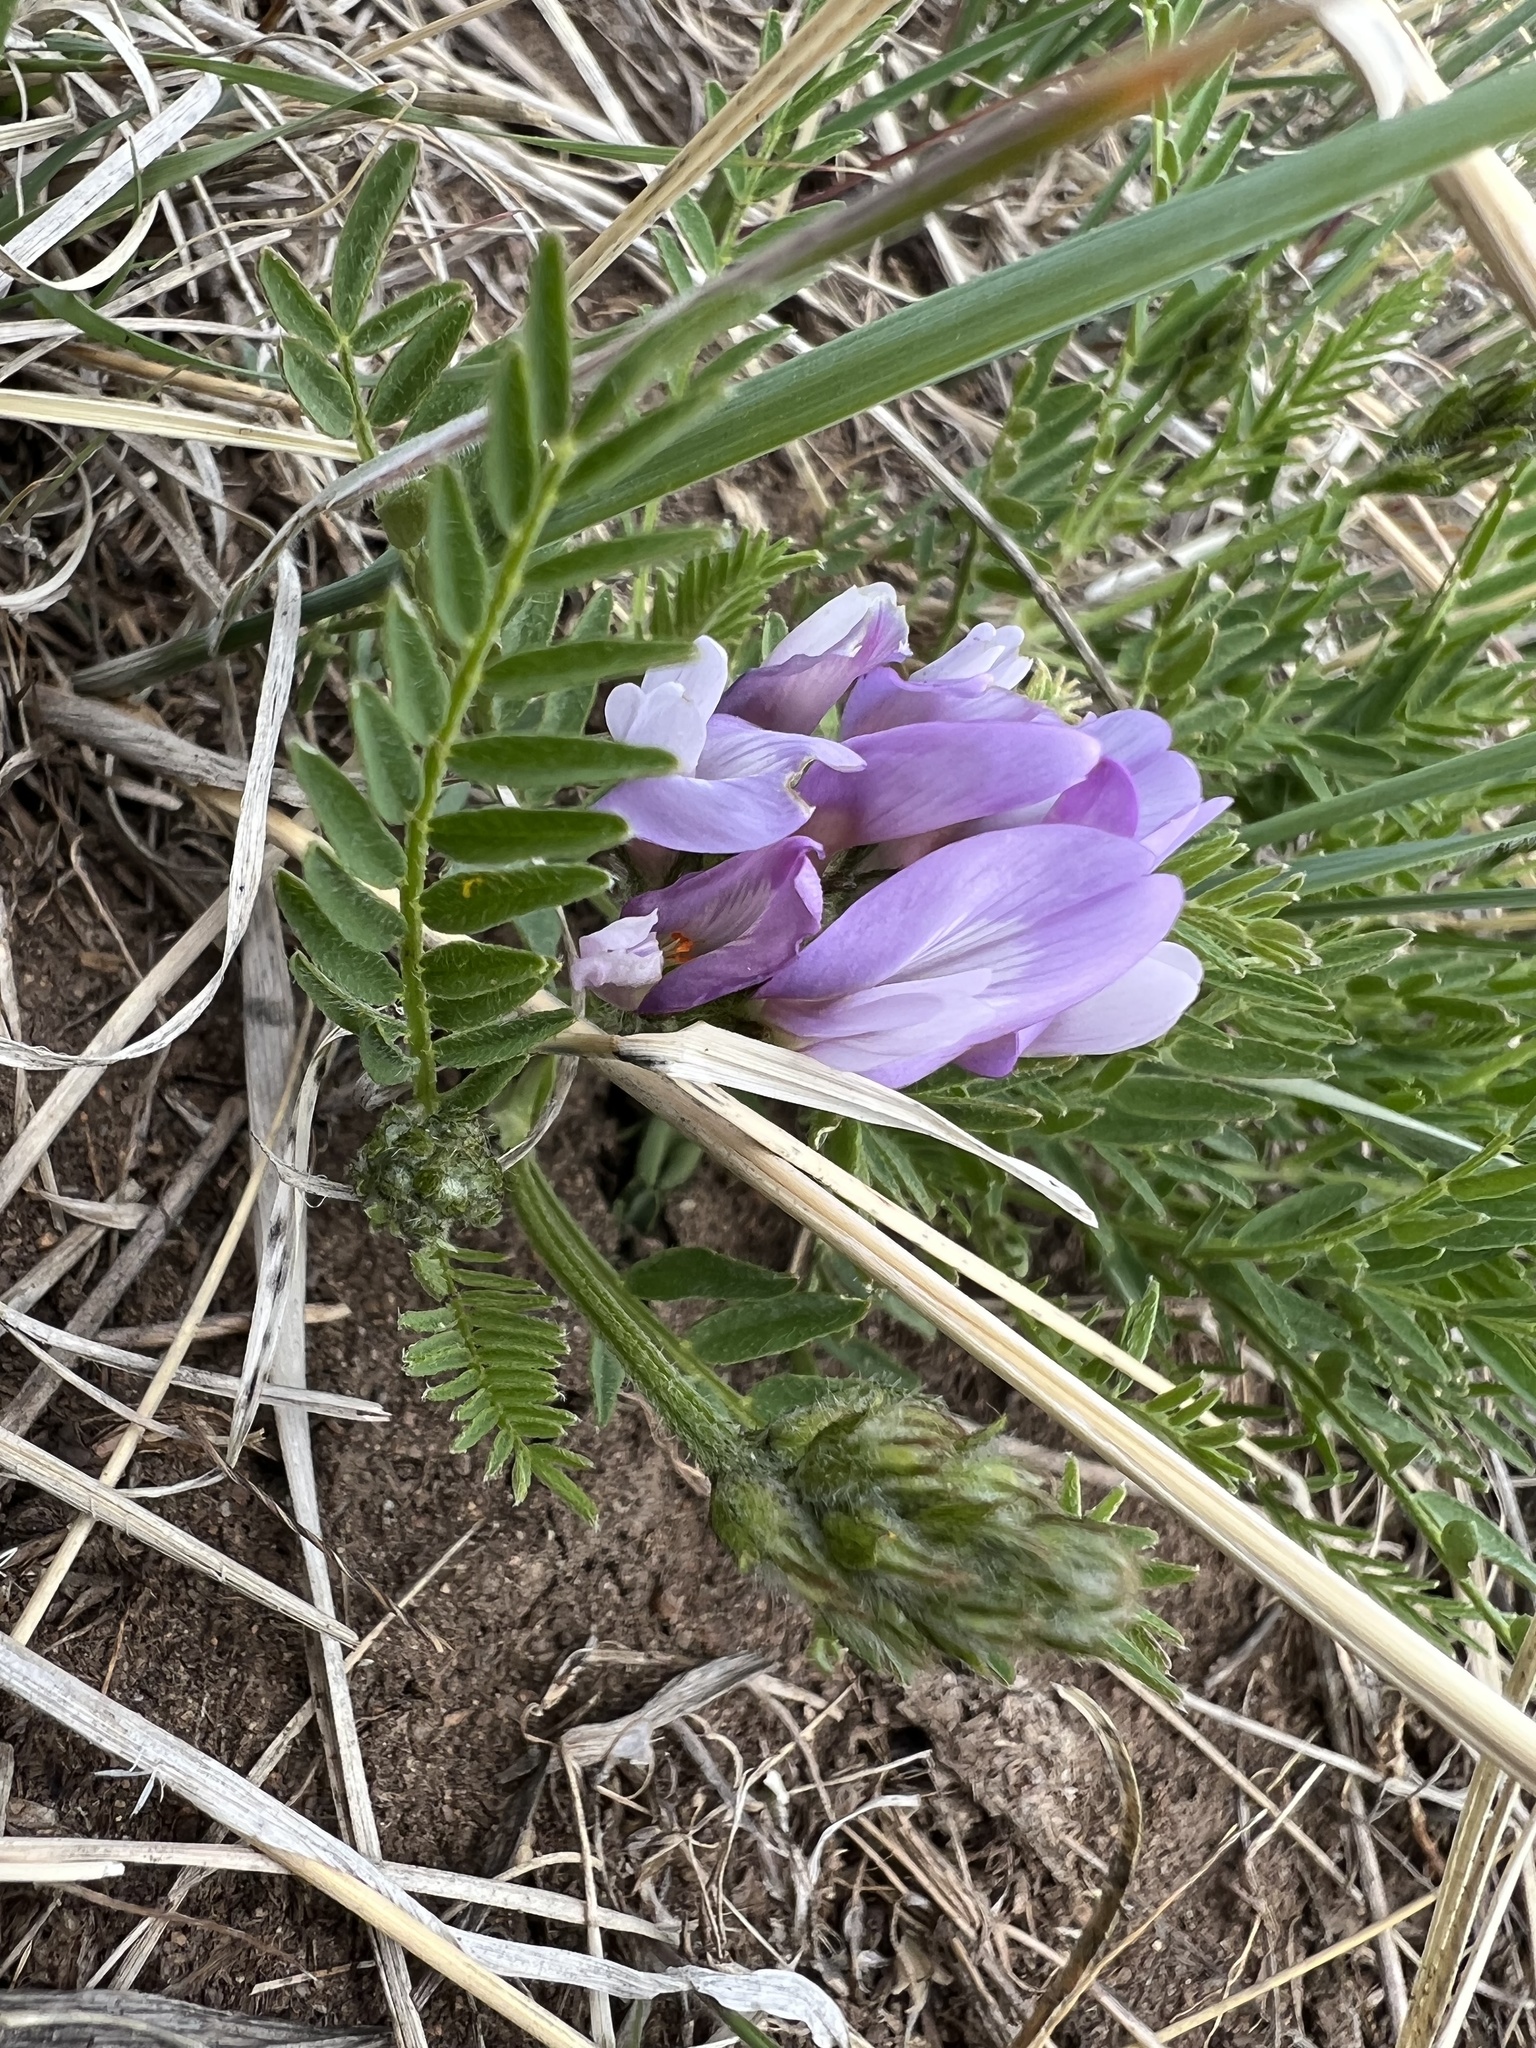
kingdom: Plantae
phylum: Tracheophyta
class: Magnoliopsida
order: Fabales
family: Fabaceae
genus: Astragalus
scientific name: Astragalus agrestis
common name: Field milk-vetch
